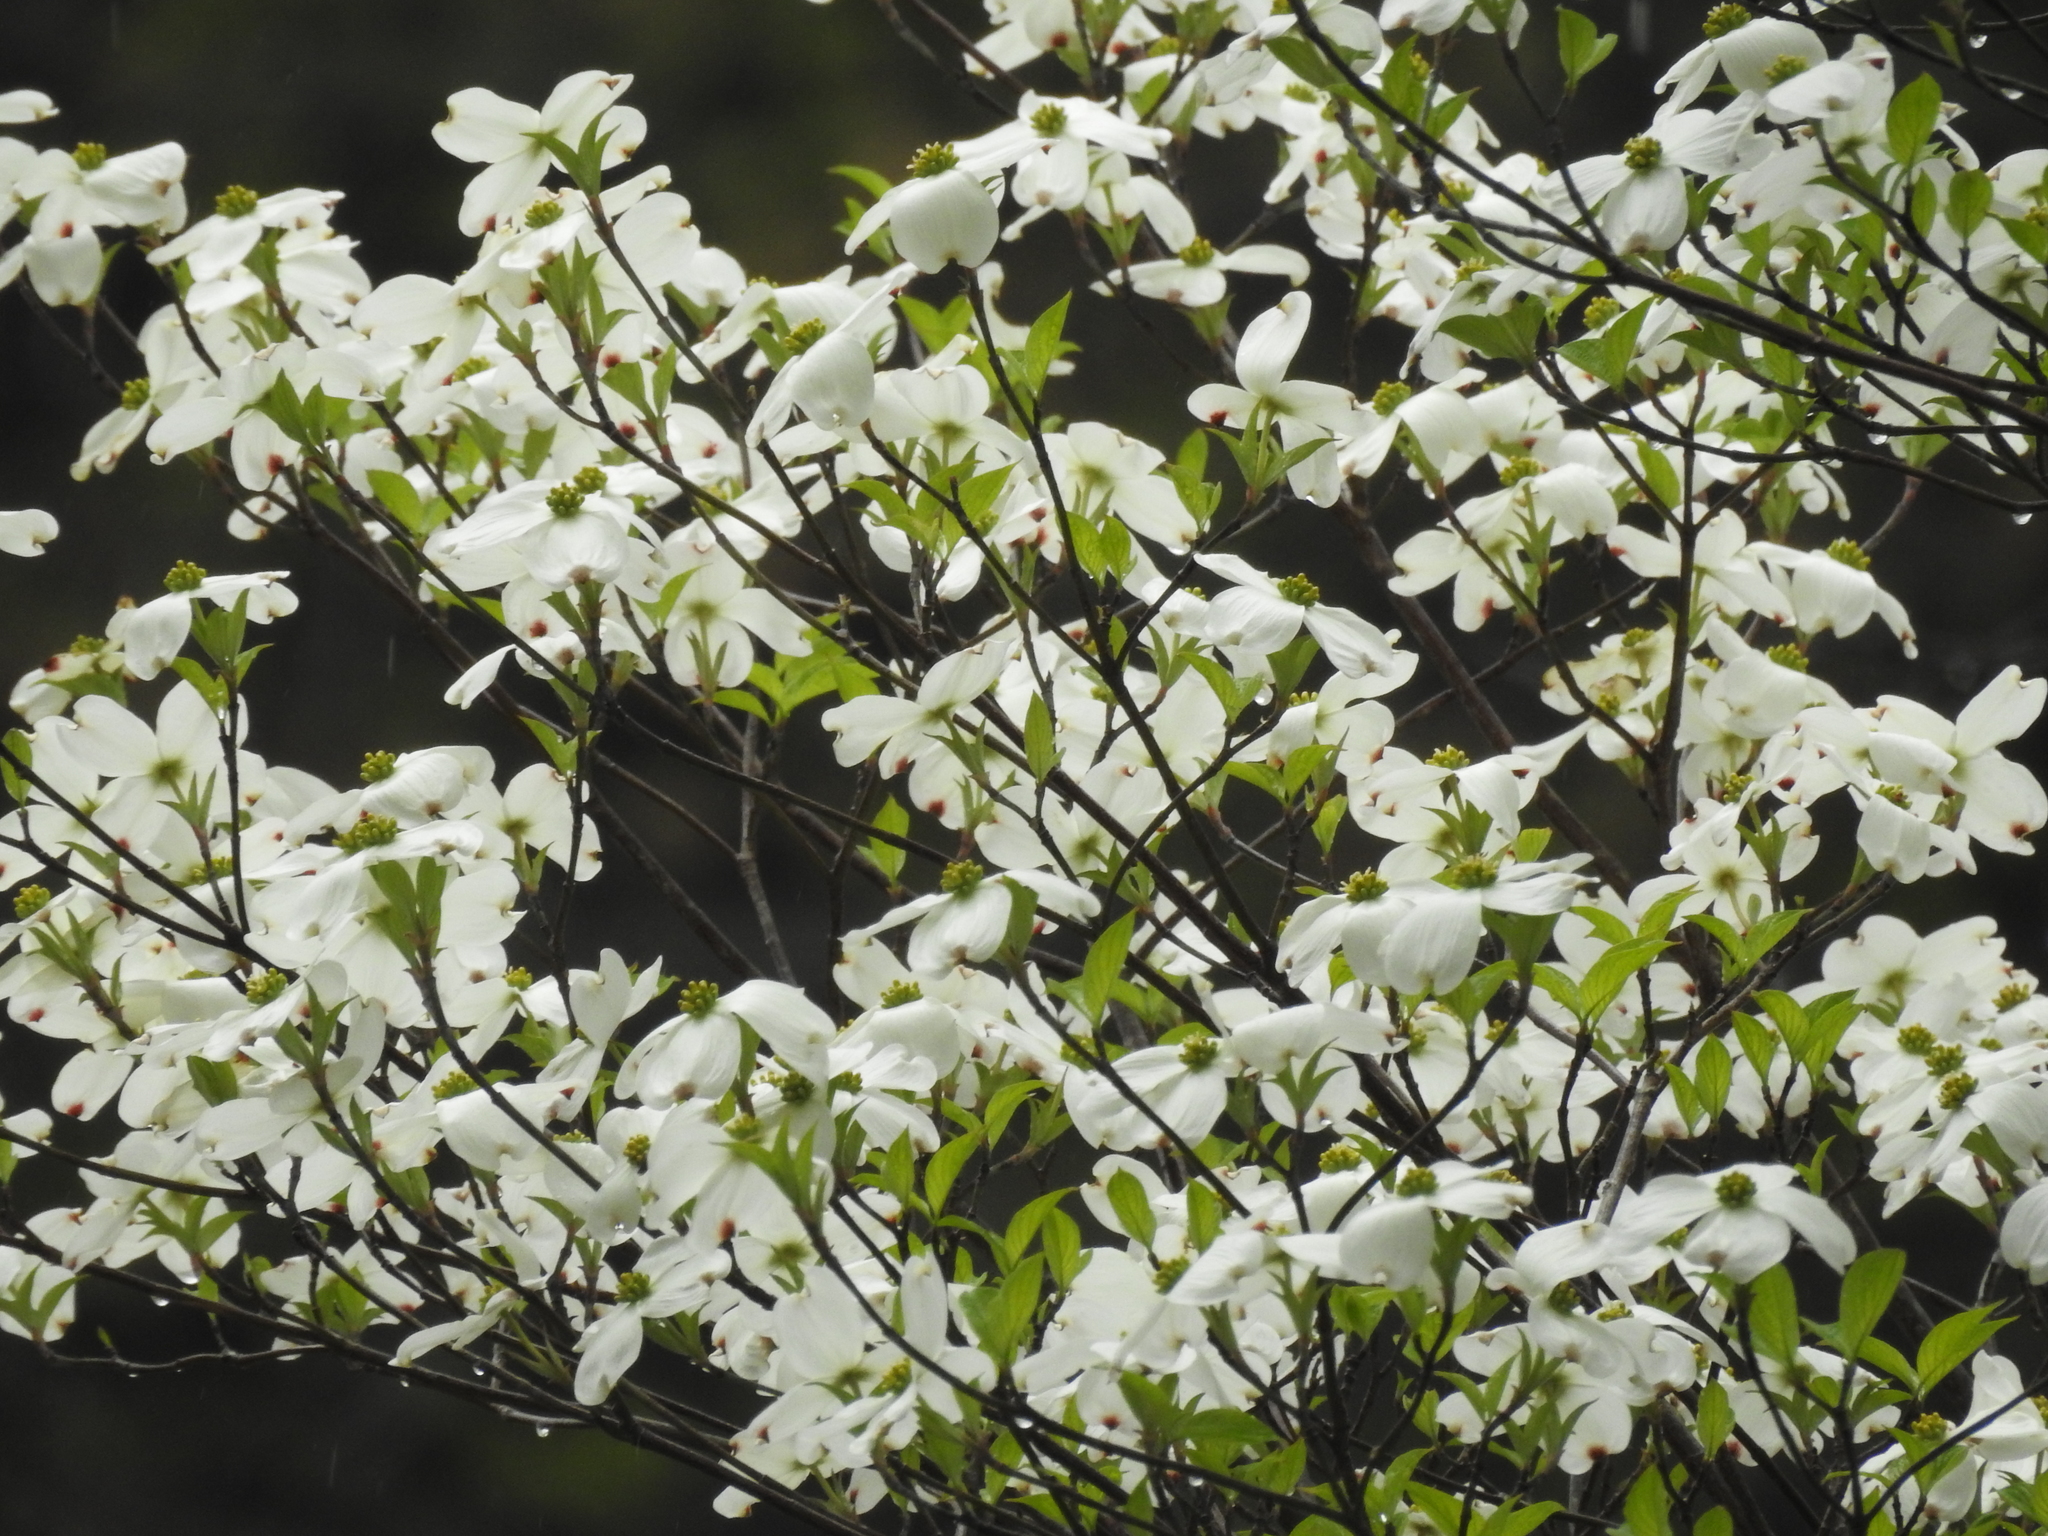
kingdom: Plantae
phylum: Tracheophyta
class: Magnoliopsida
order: Cornales
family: Cornaceae
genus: Cornus
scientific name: Cornus florida
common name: Flowering dogwood
